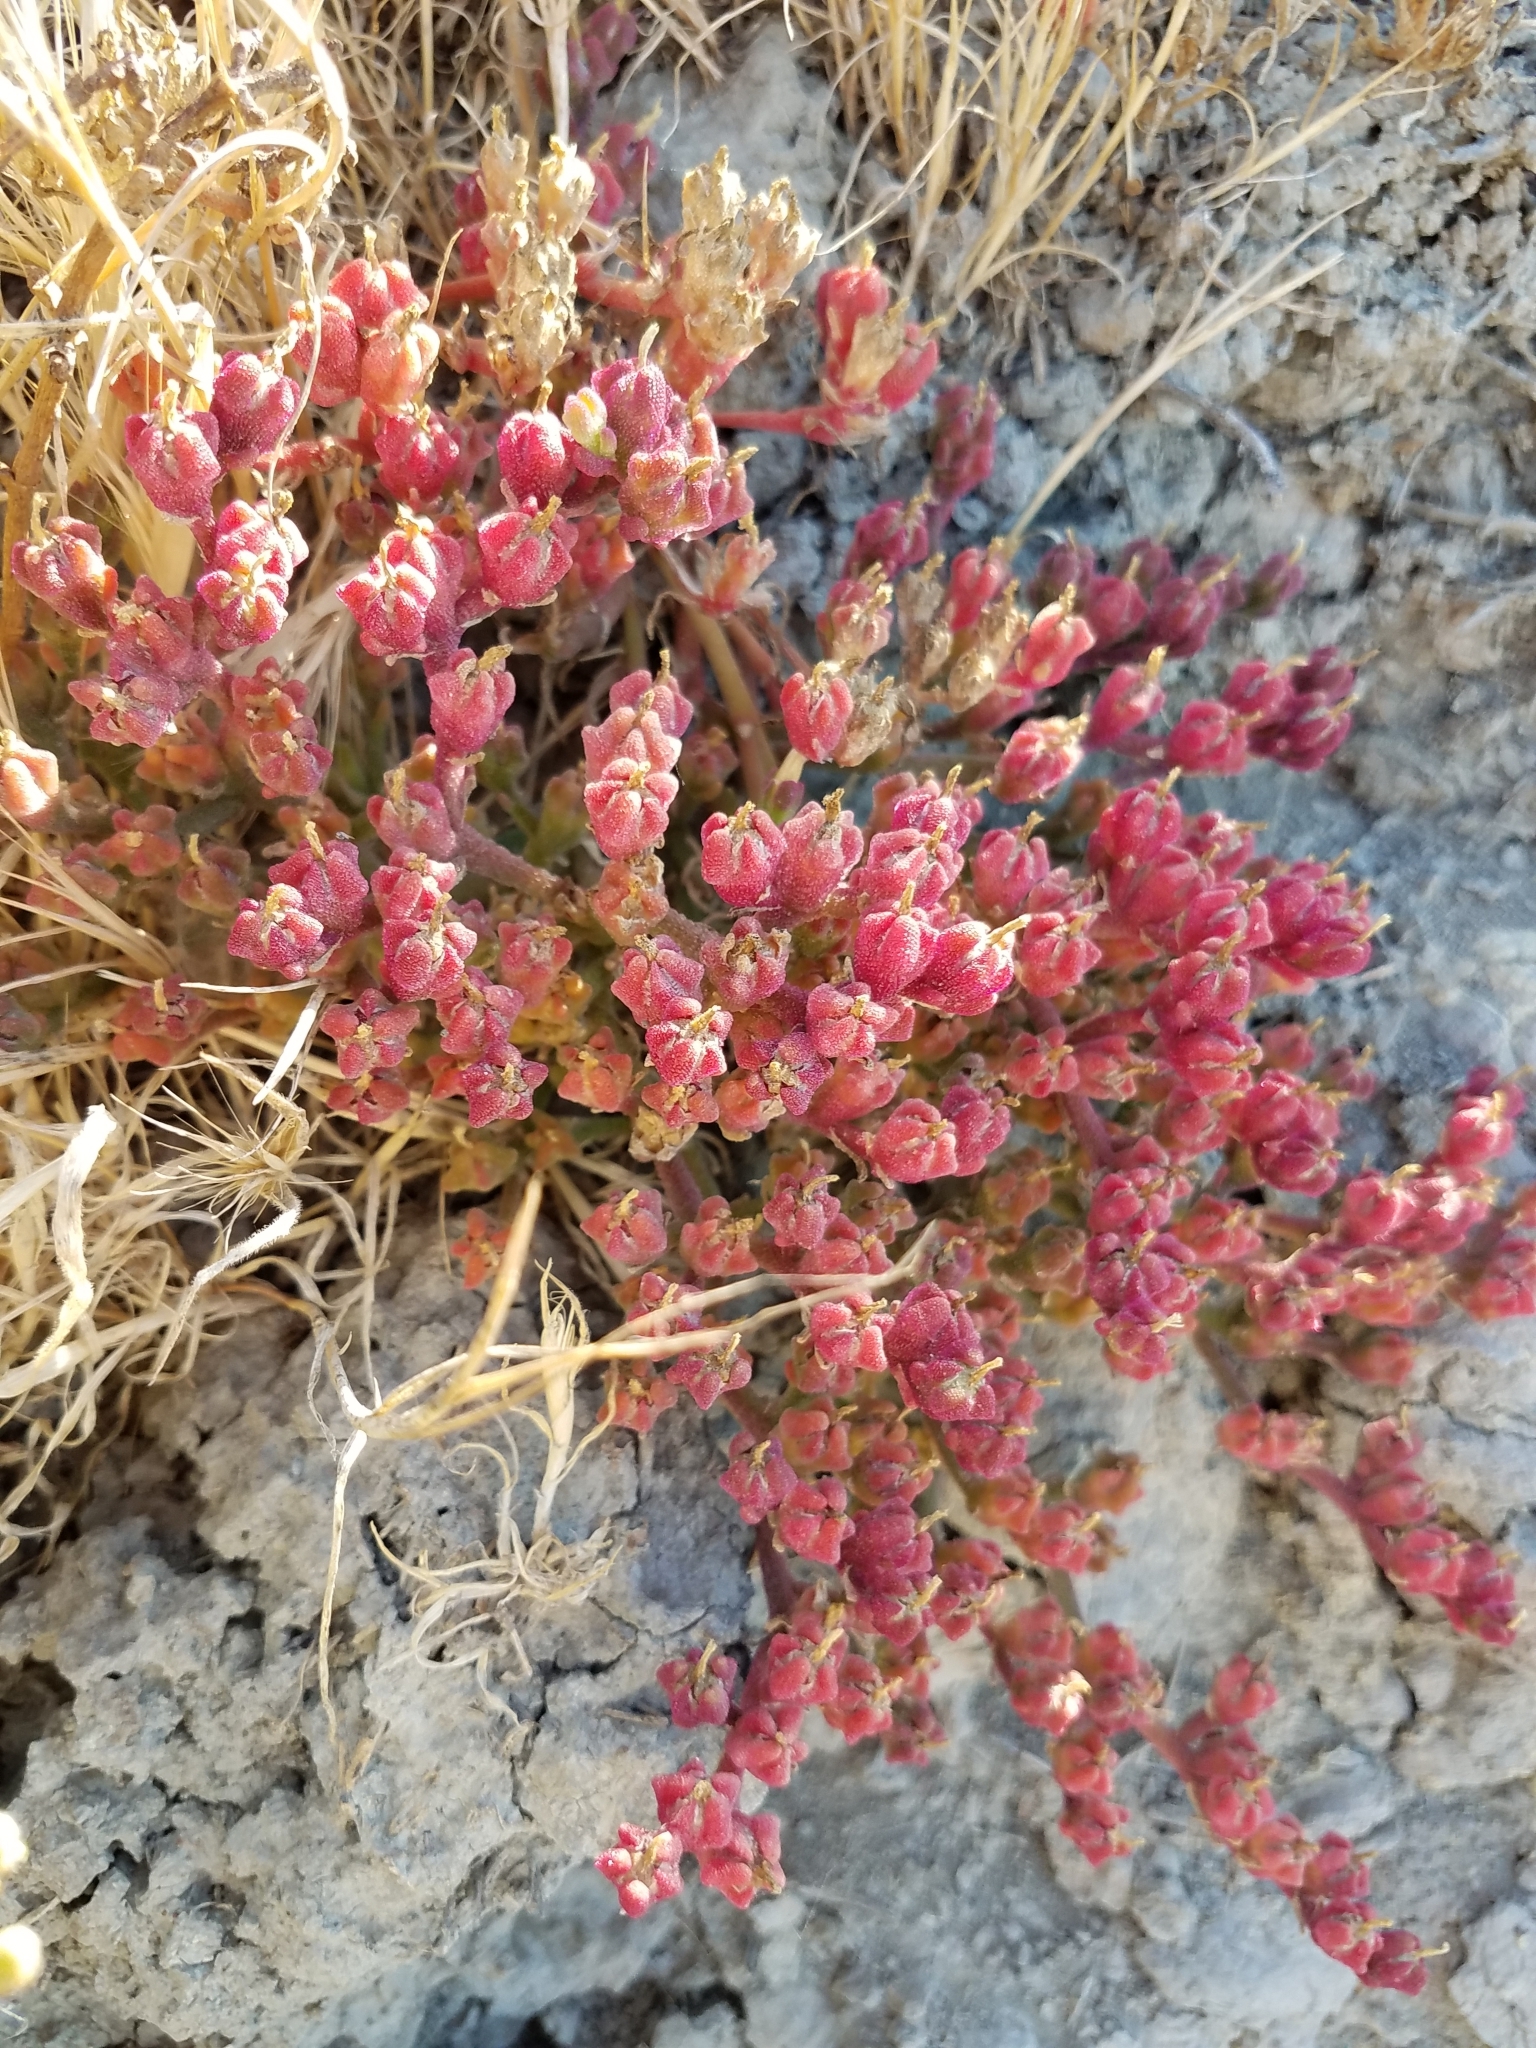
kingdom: Plantae
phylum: Tracheophyta
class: Magnoliopsida
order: Caryophyllales
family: Aizoaceae
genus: Mesembryanthemum
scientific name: Mesembryanthemum nodiflorum
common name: Slenderleaf iceplant
